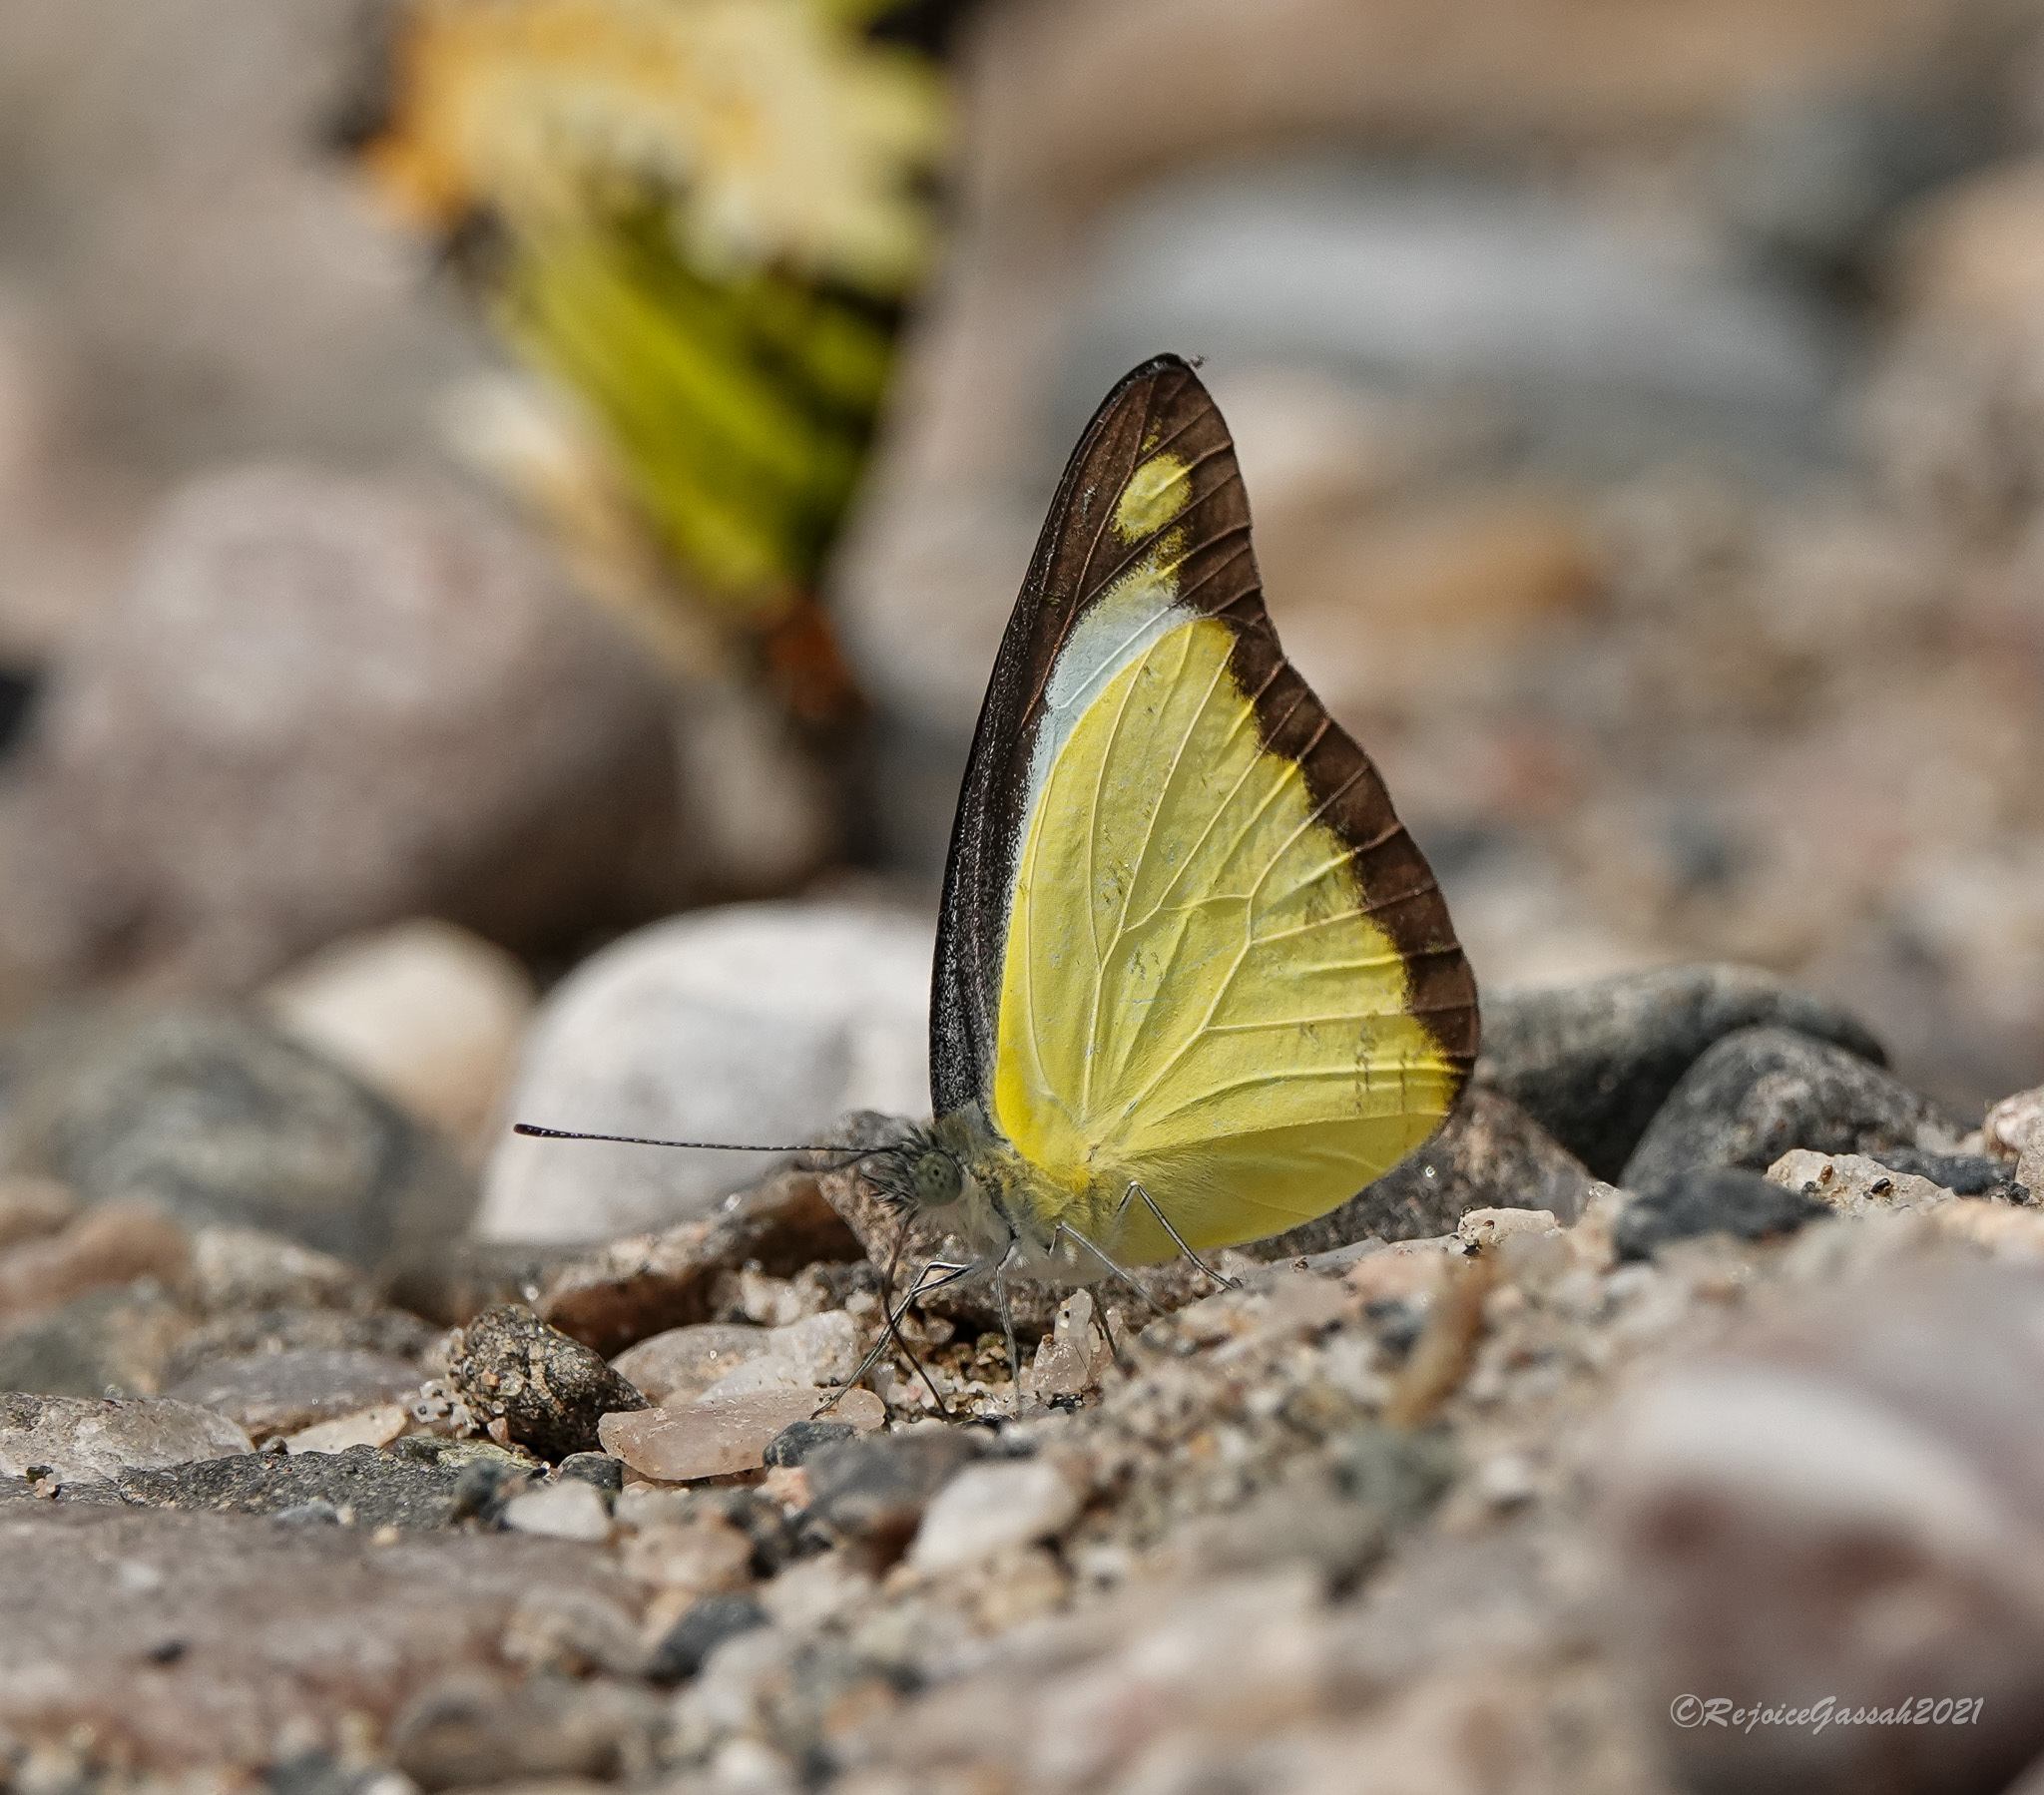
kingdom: Animalia
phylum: Arthropoda
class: Insecta
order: Lepidoptera
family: Pieridae
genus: Appias
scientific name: Appias lyncida
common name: Chocolate albatross
